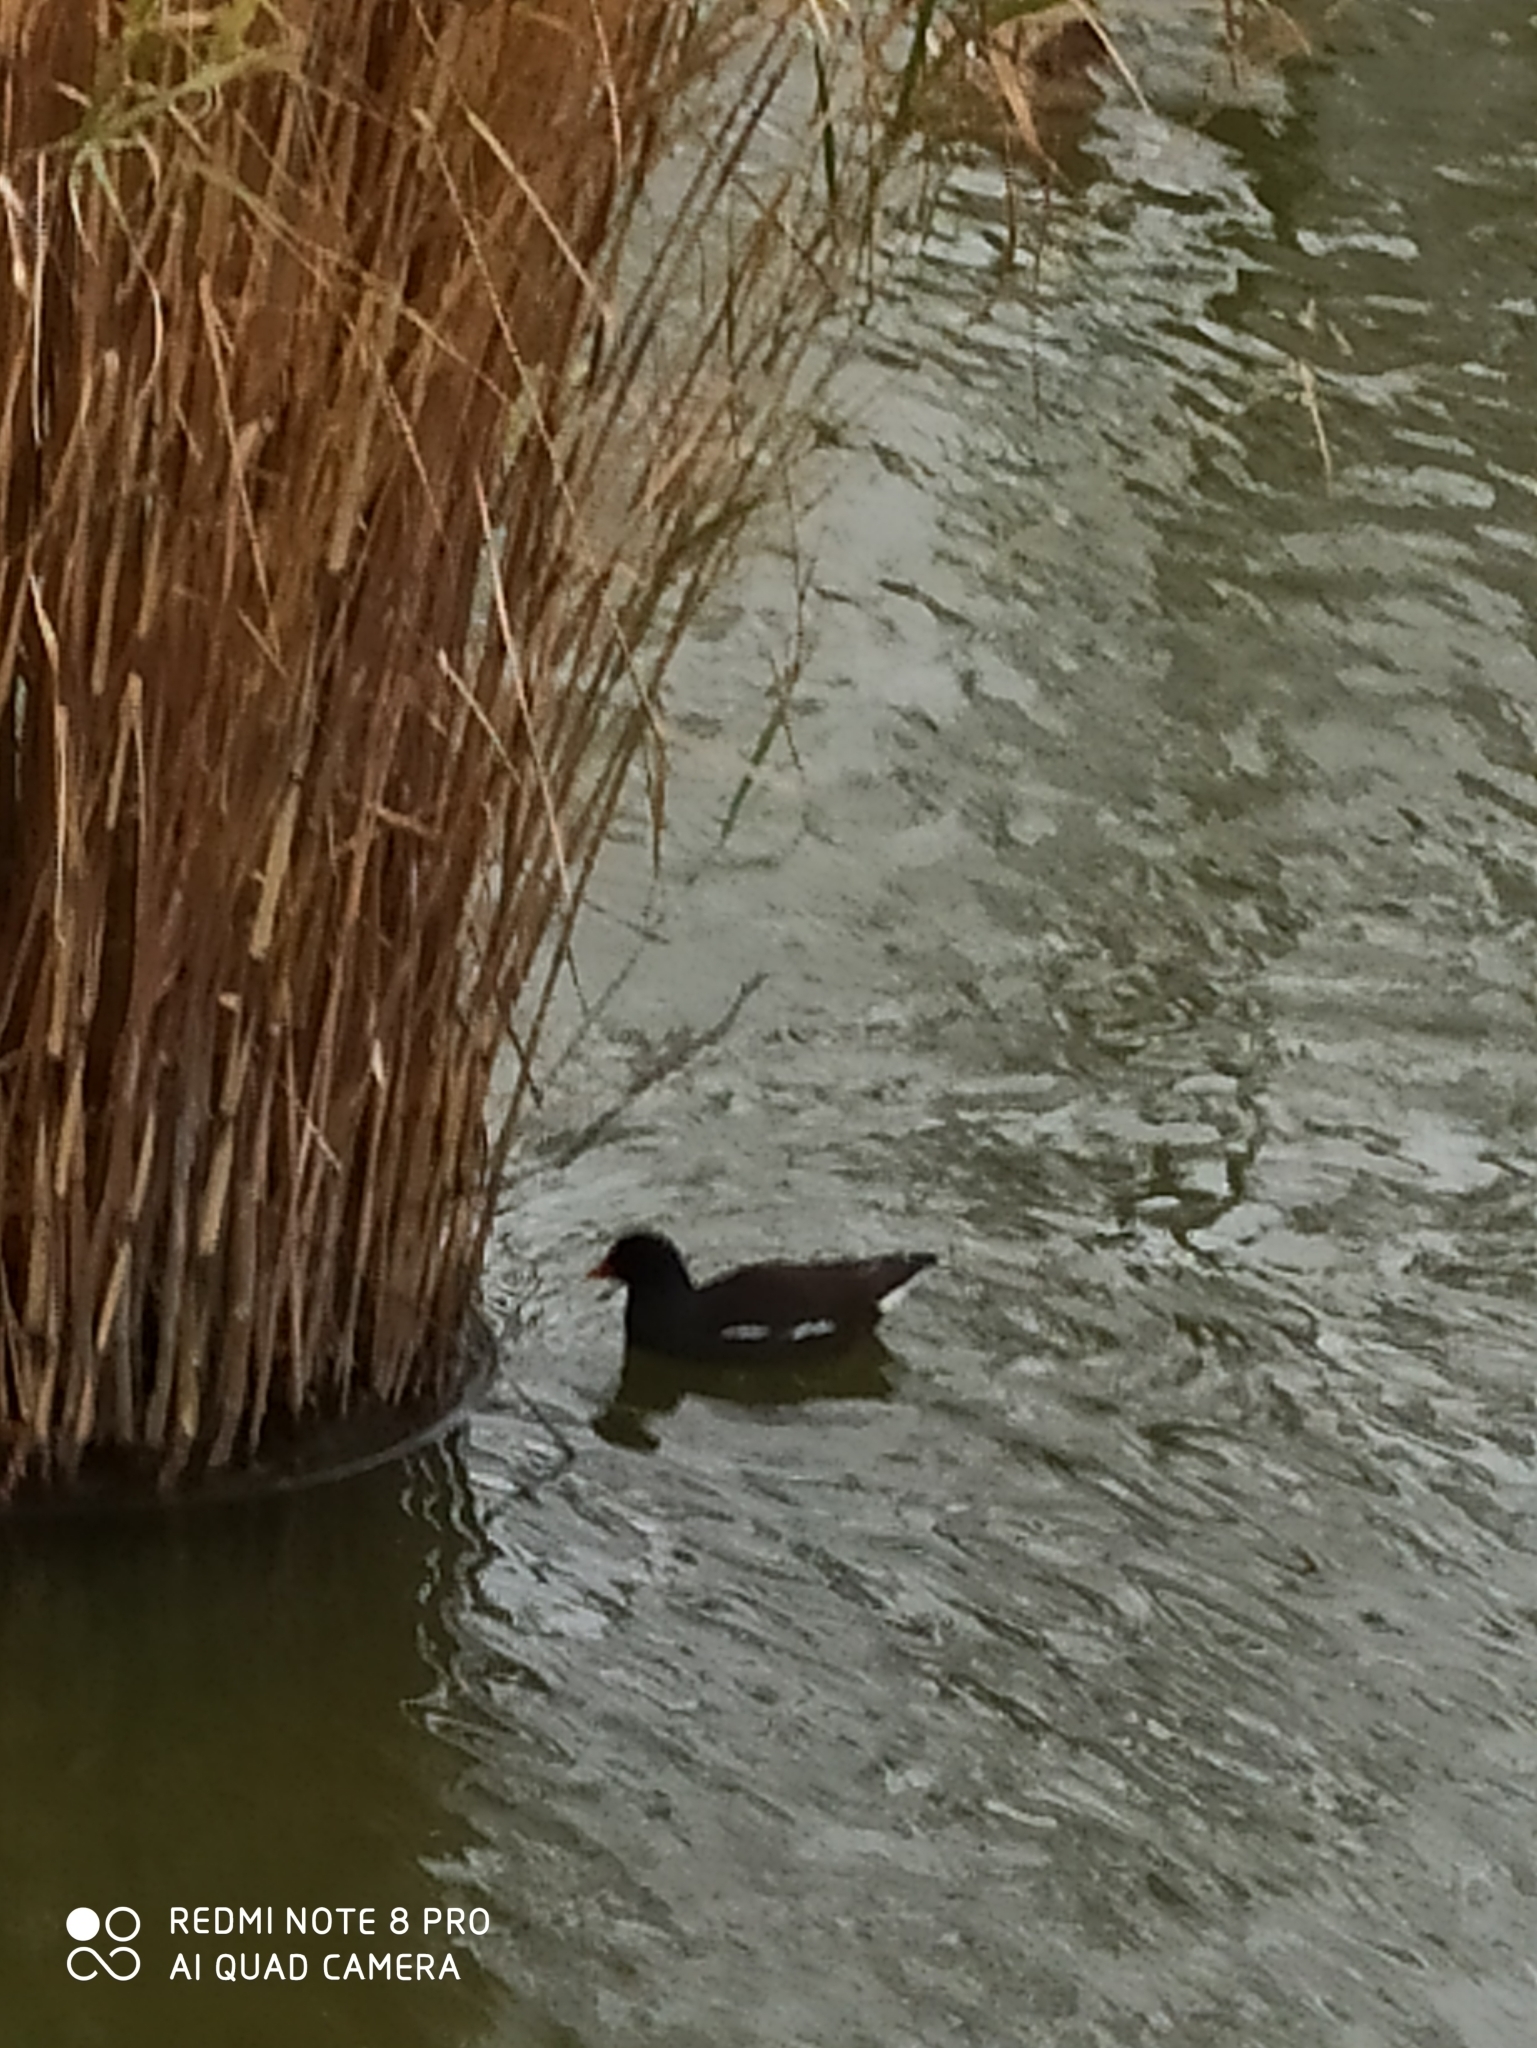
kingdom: Animalia
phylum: Chordata
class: Aves
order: Gruiformes
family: Rallidae
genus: Gallinula
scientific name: Gallinula chloropus
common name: Common moorhen
